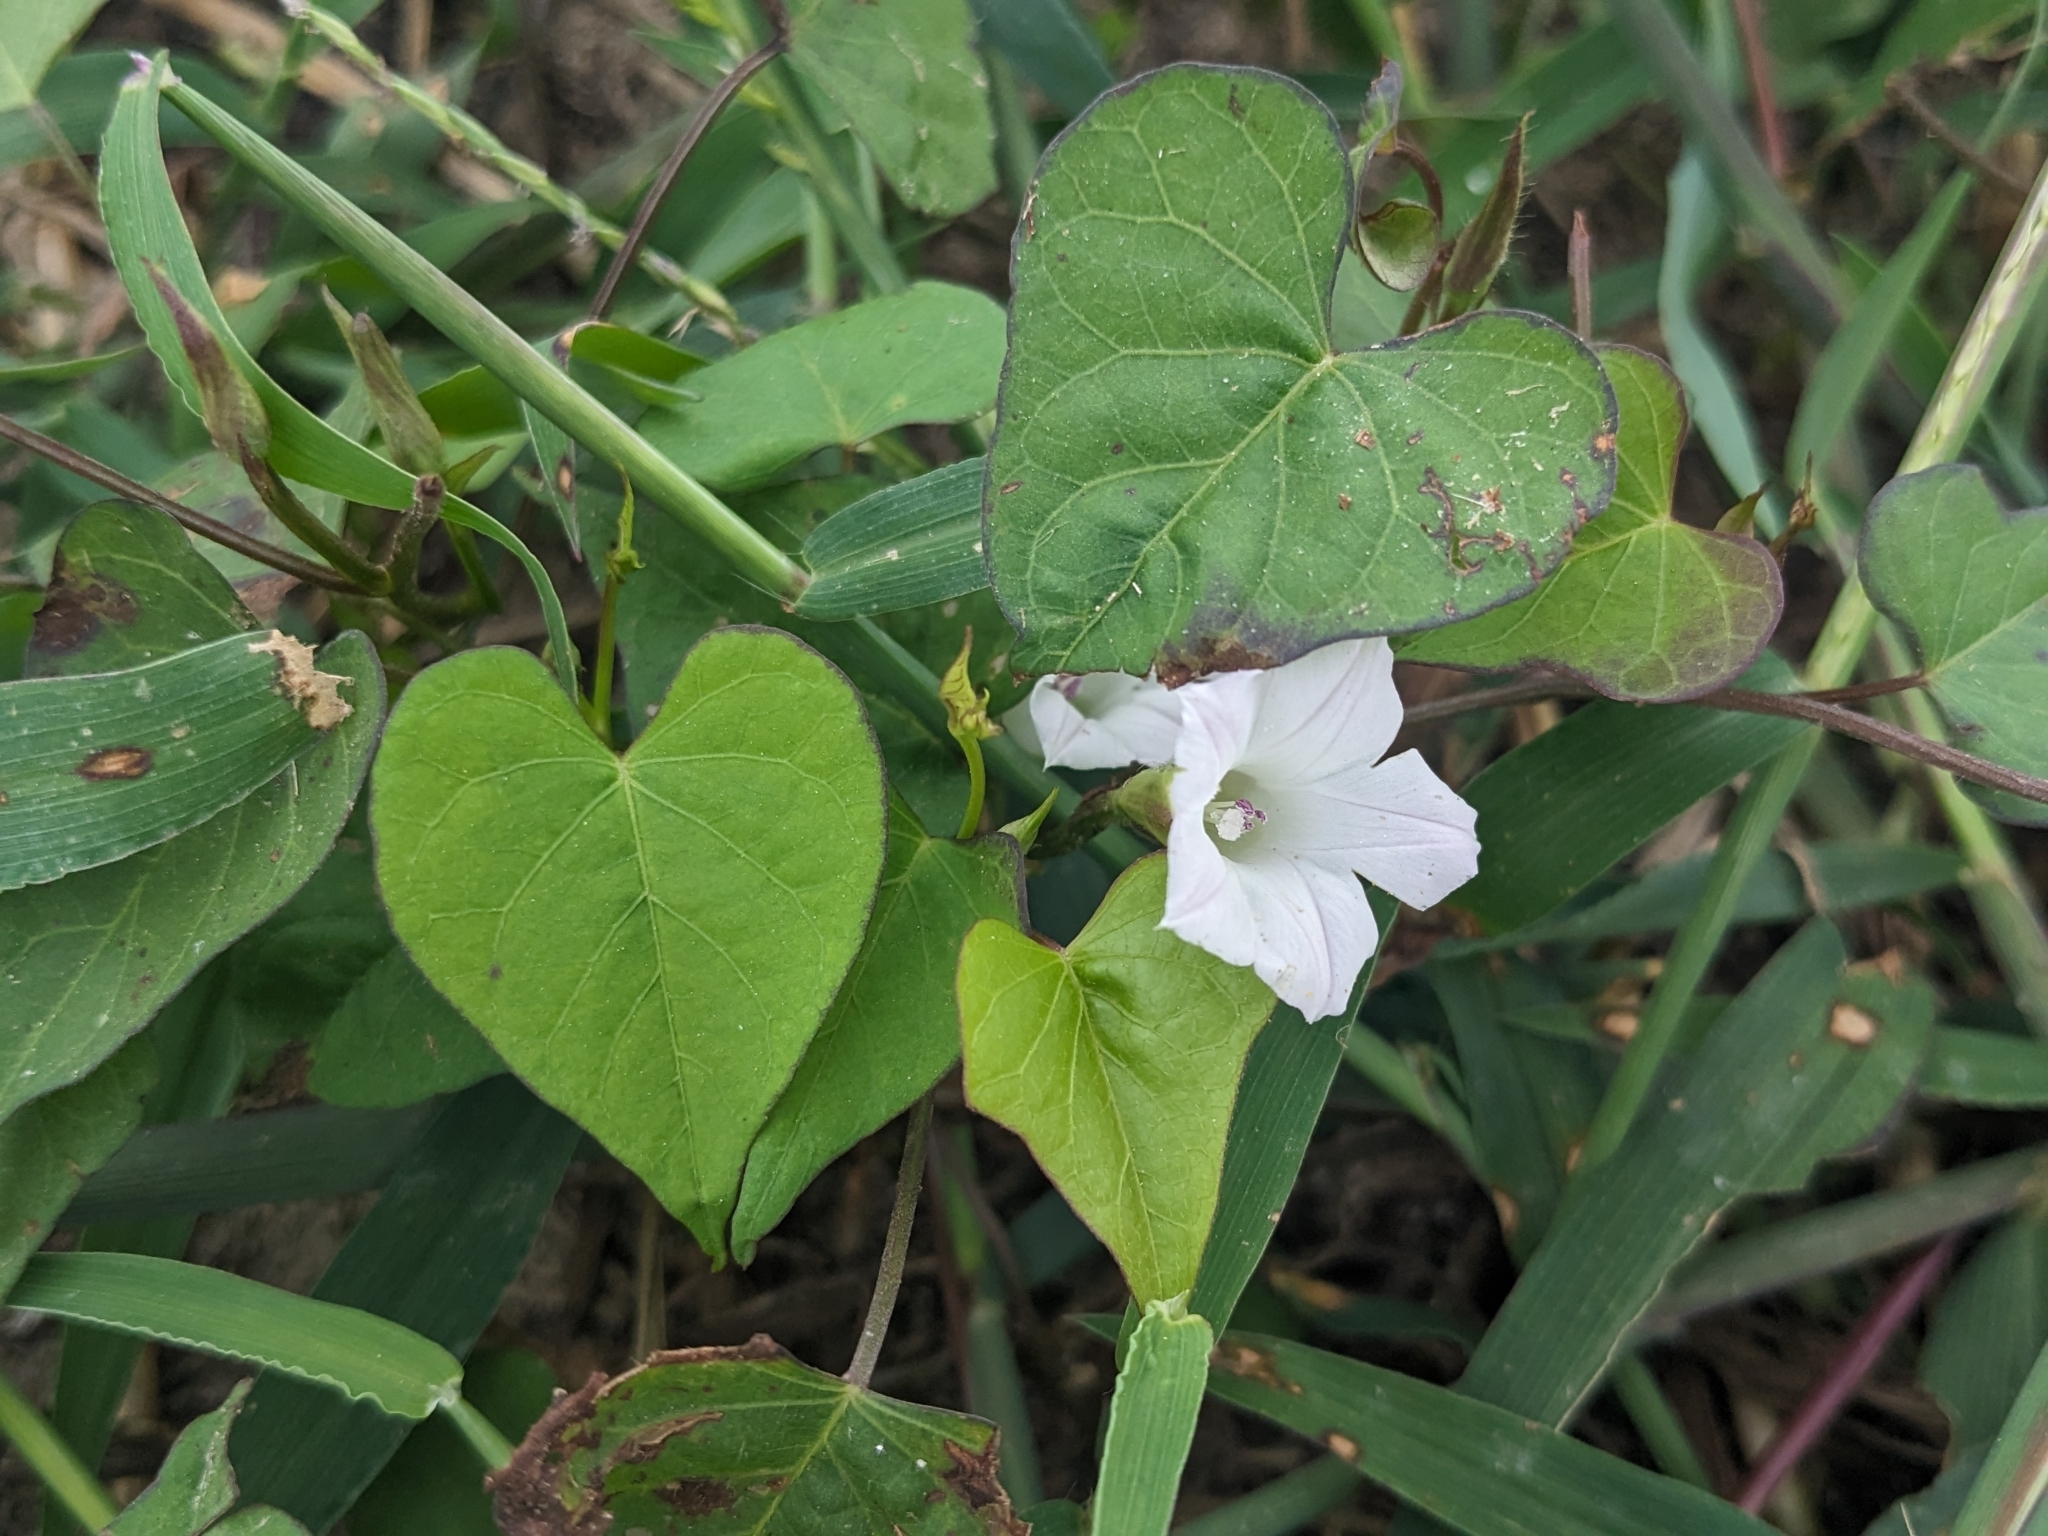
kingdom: Plantae
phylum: Tracheophyta
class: Magnoliopsida
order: Solanales
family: Convolvulaceae
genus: Ipomoea
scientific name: Ipomoea lacunosa
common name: White morning-glory
